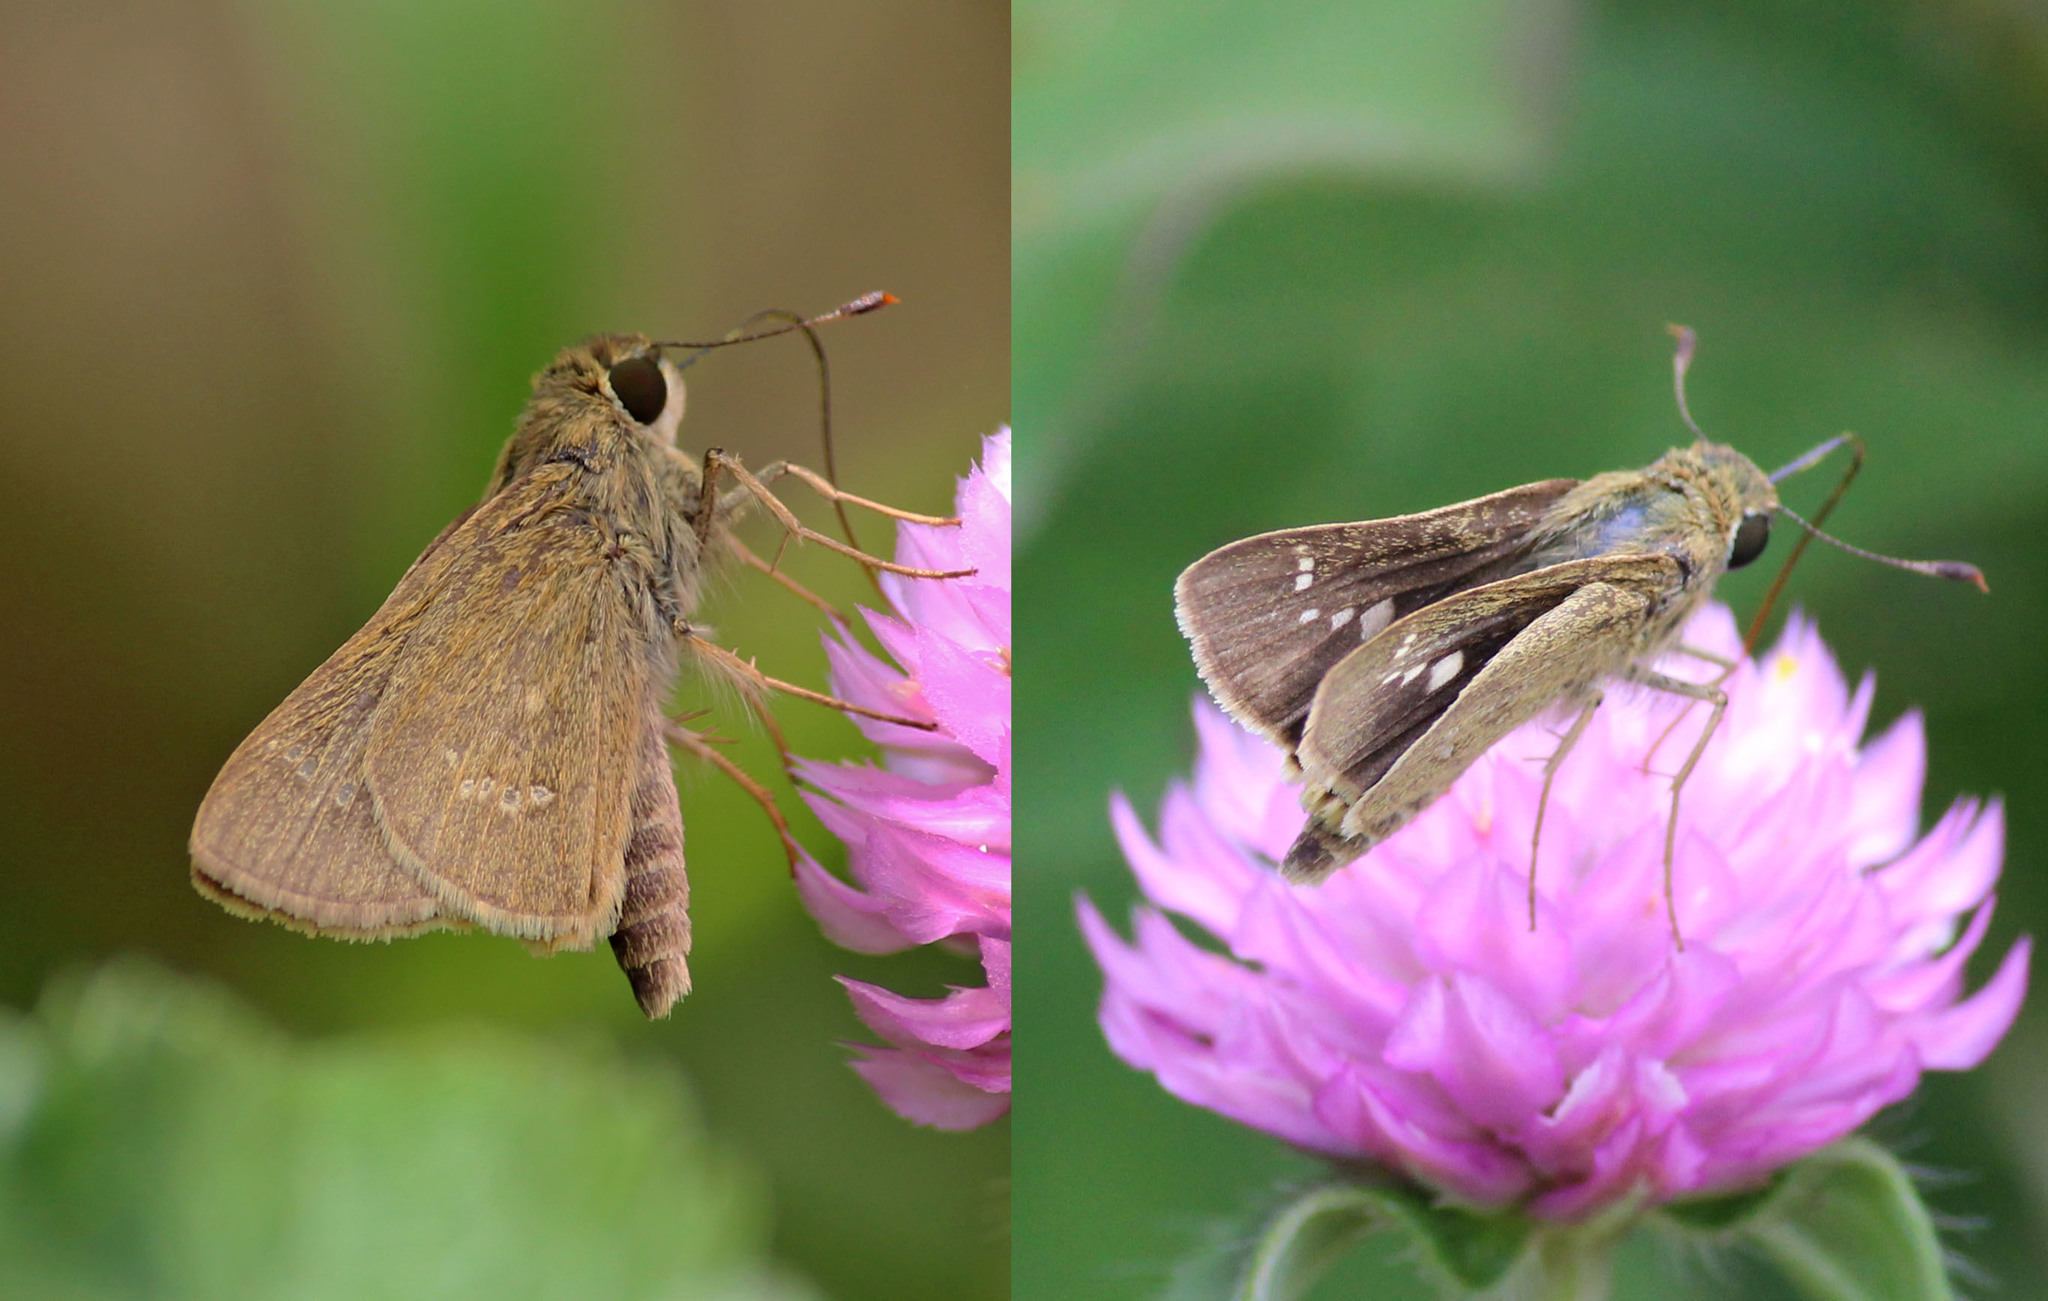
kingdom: Animalia
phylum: Arthropoda
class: Insecta
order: Lepidoptera
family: Hesperiidae
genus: Parnara
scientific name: Parnara naso
